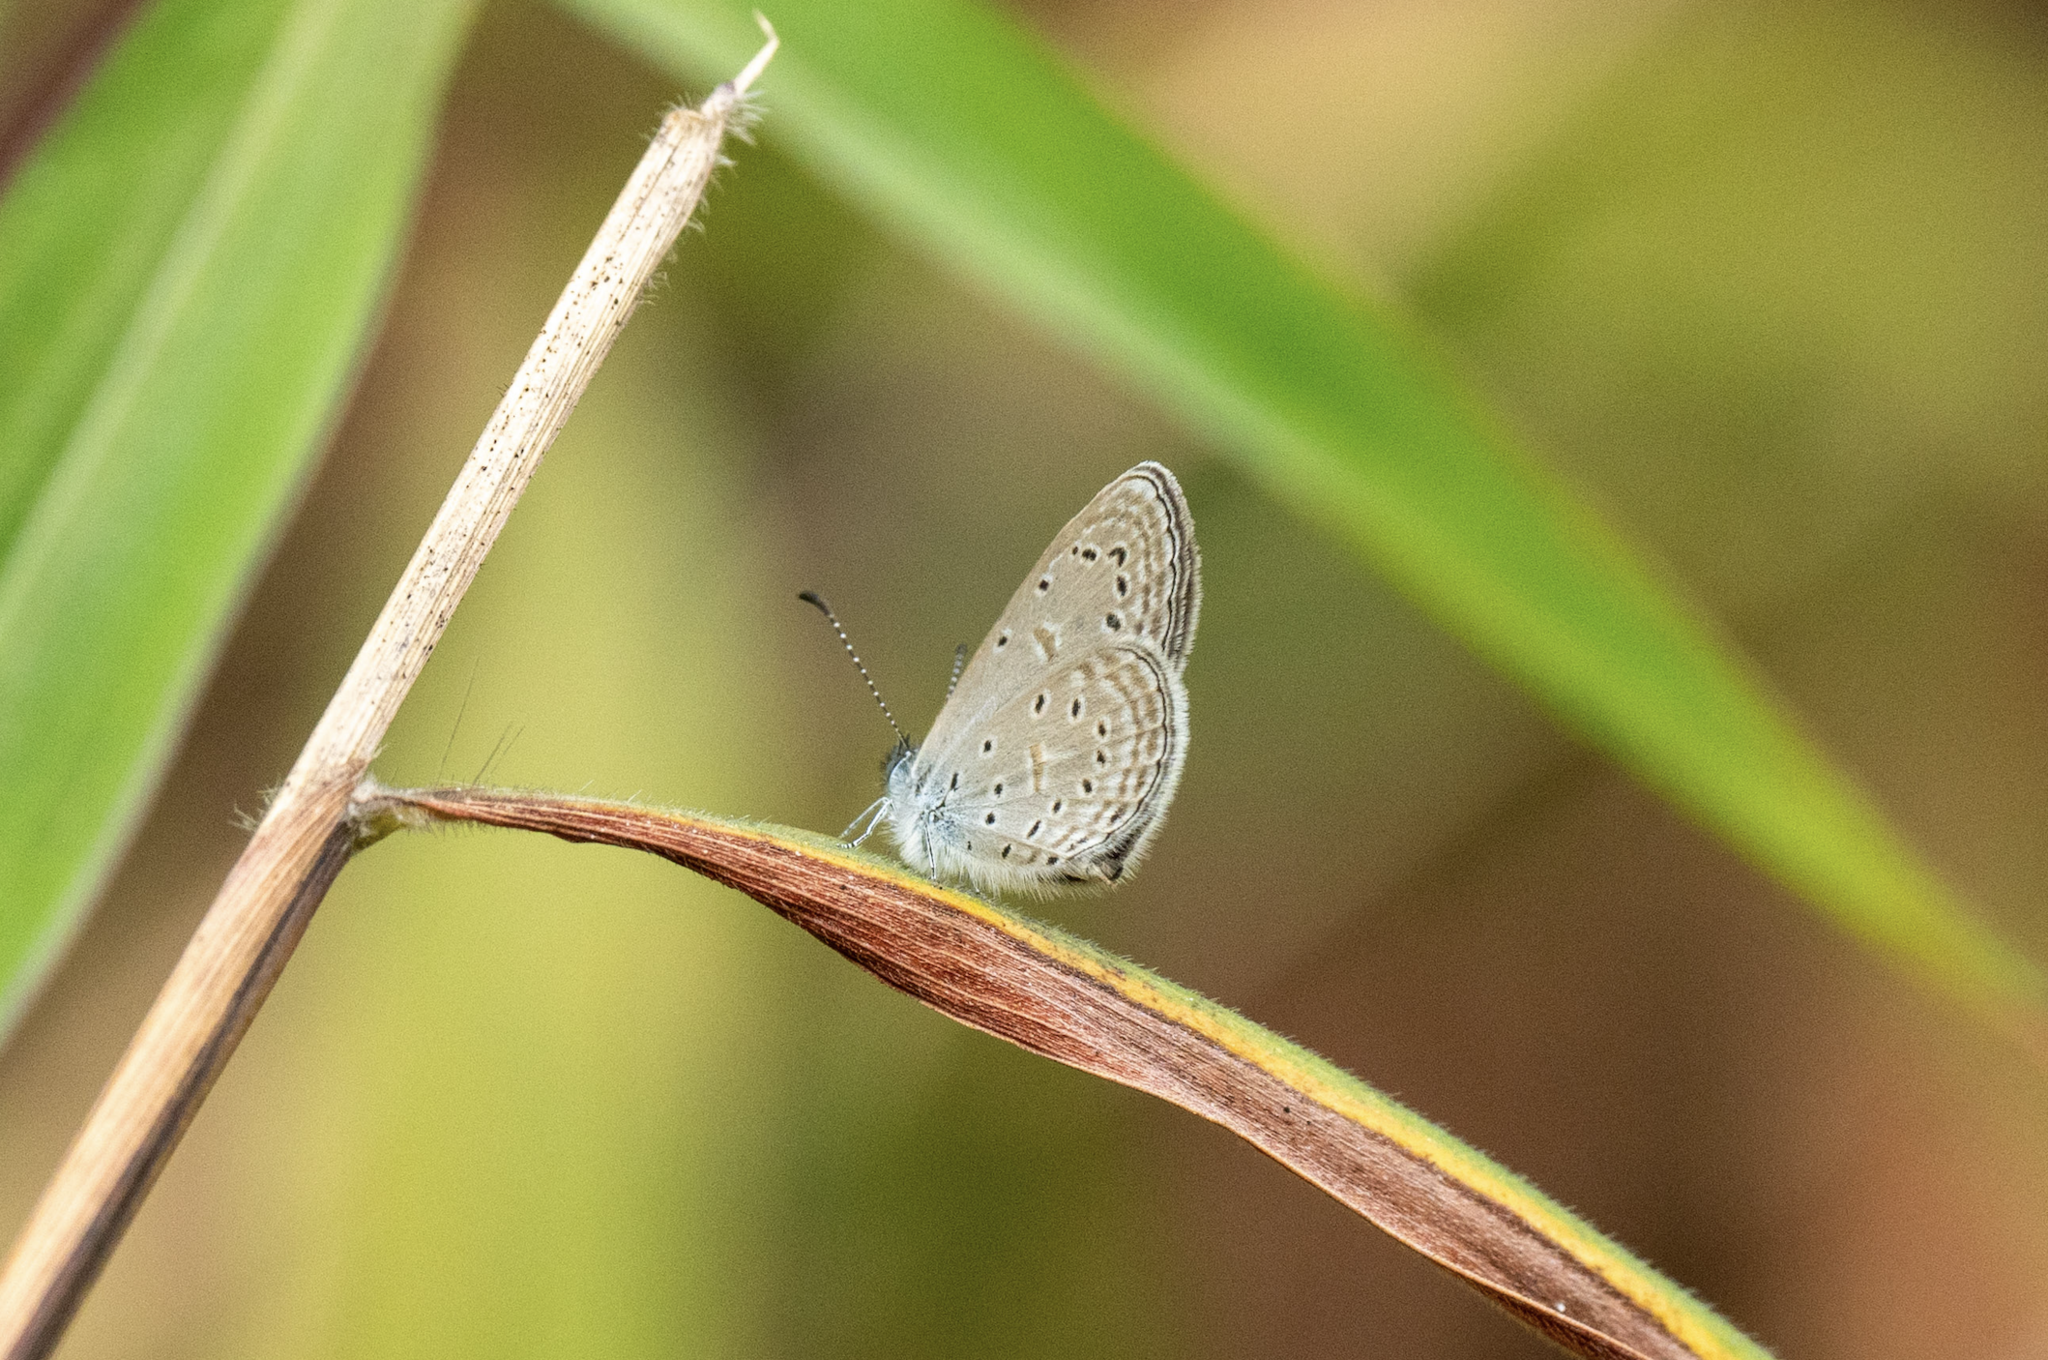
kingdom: Animalia
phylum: Arthropoda
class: Insecta
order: Lepidoptera
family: Lycaenidae
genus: Zizula
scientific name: Zizula hylax
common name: Gaika blue
